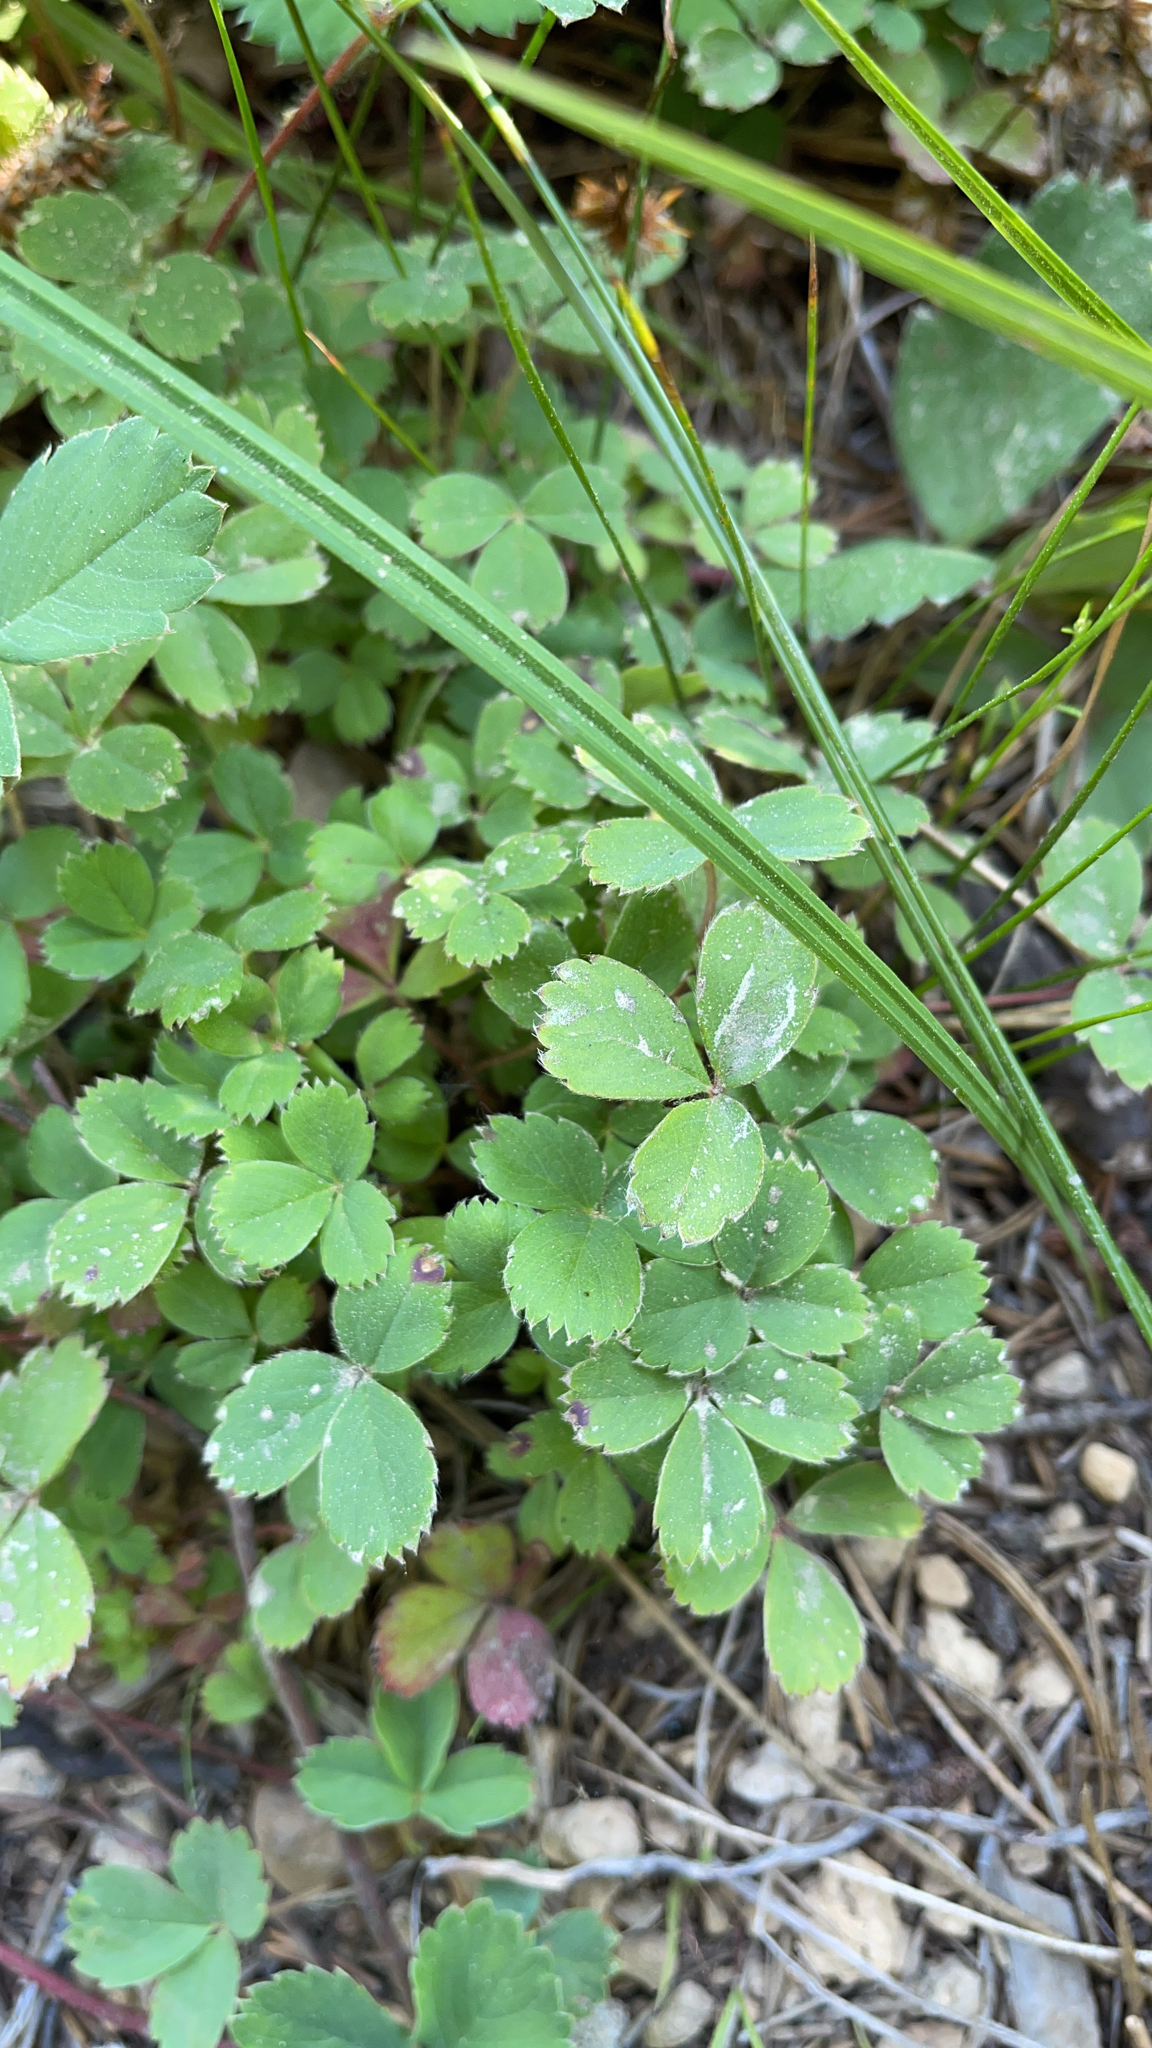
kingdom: Plantae
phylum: Tracheophyta
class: Magnoliopsida
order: Rosales
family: Rosaceae
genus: Fragaria
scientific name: Fragaria virginiana
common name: Thickleaved wild strawberry
